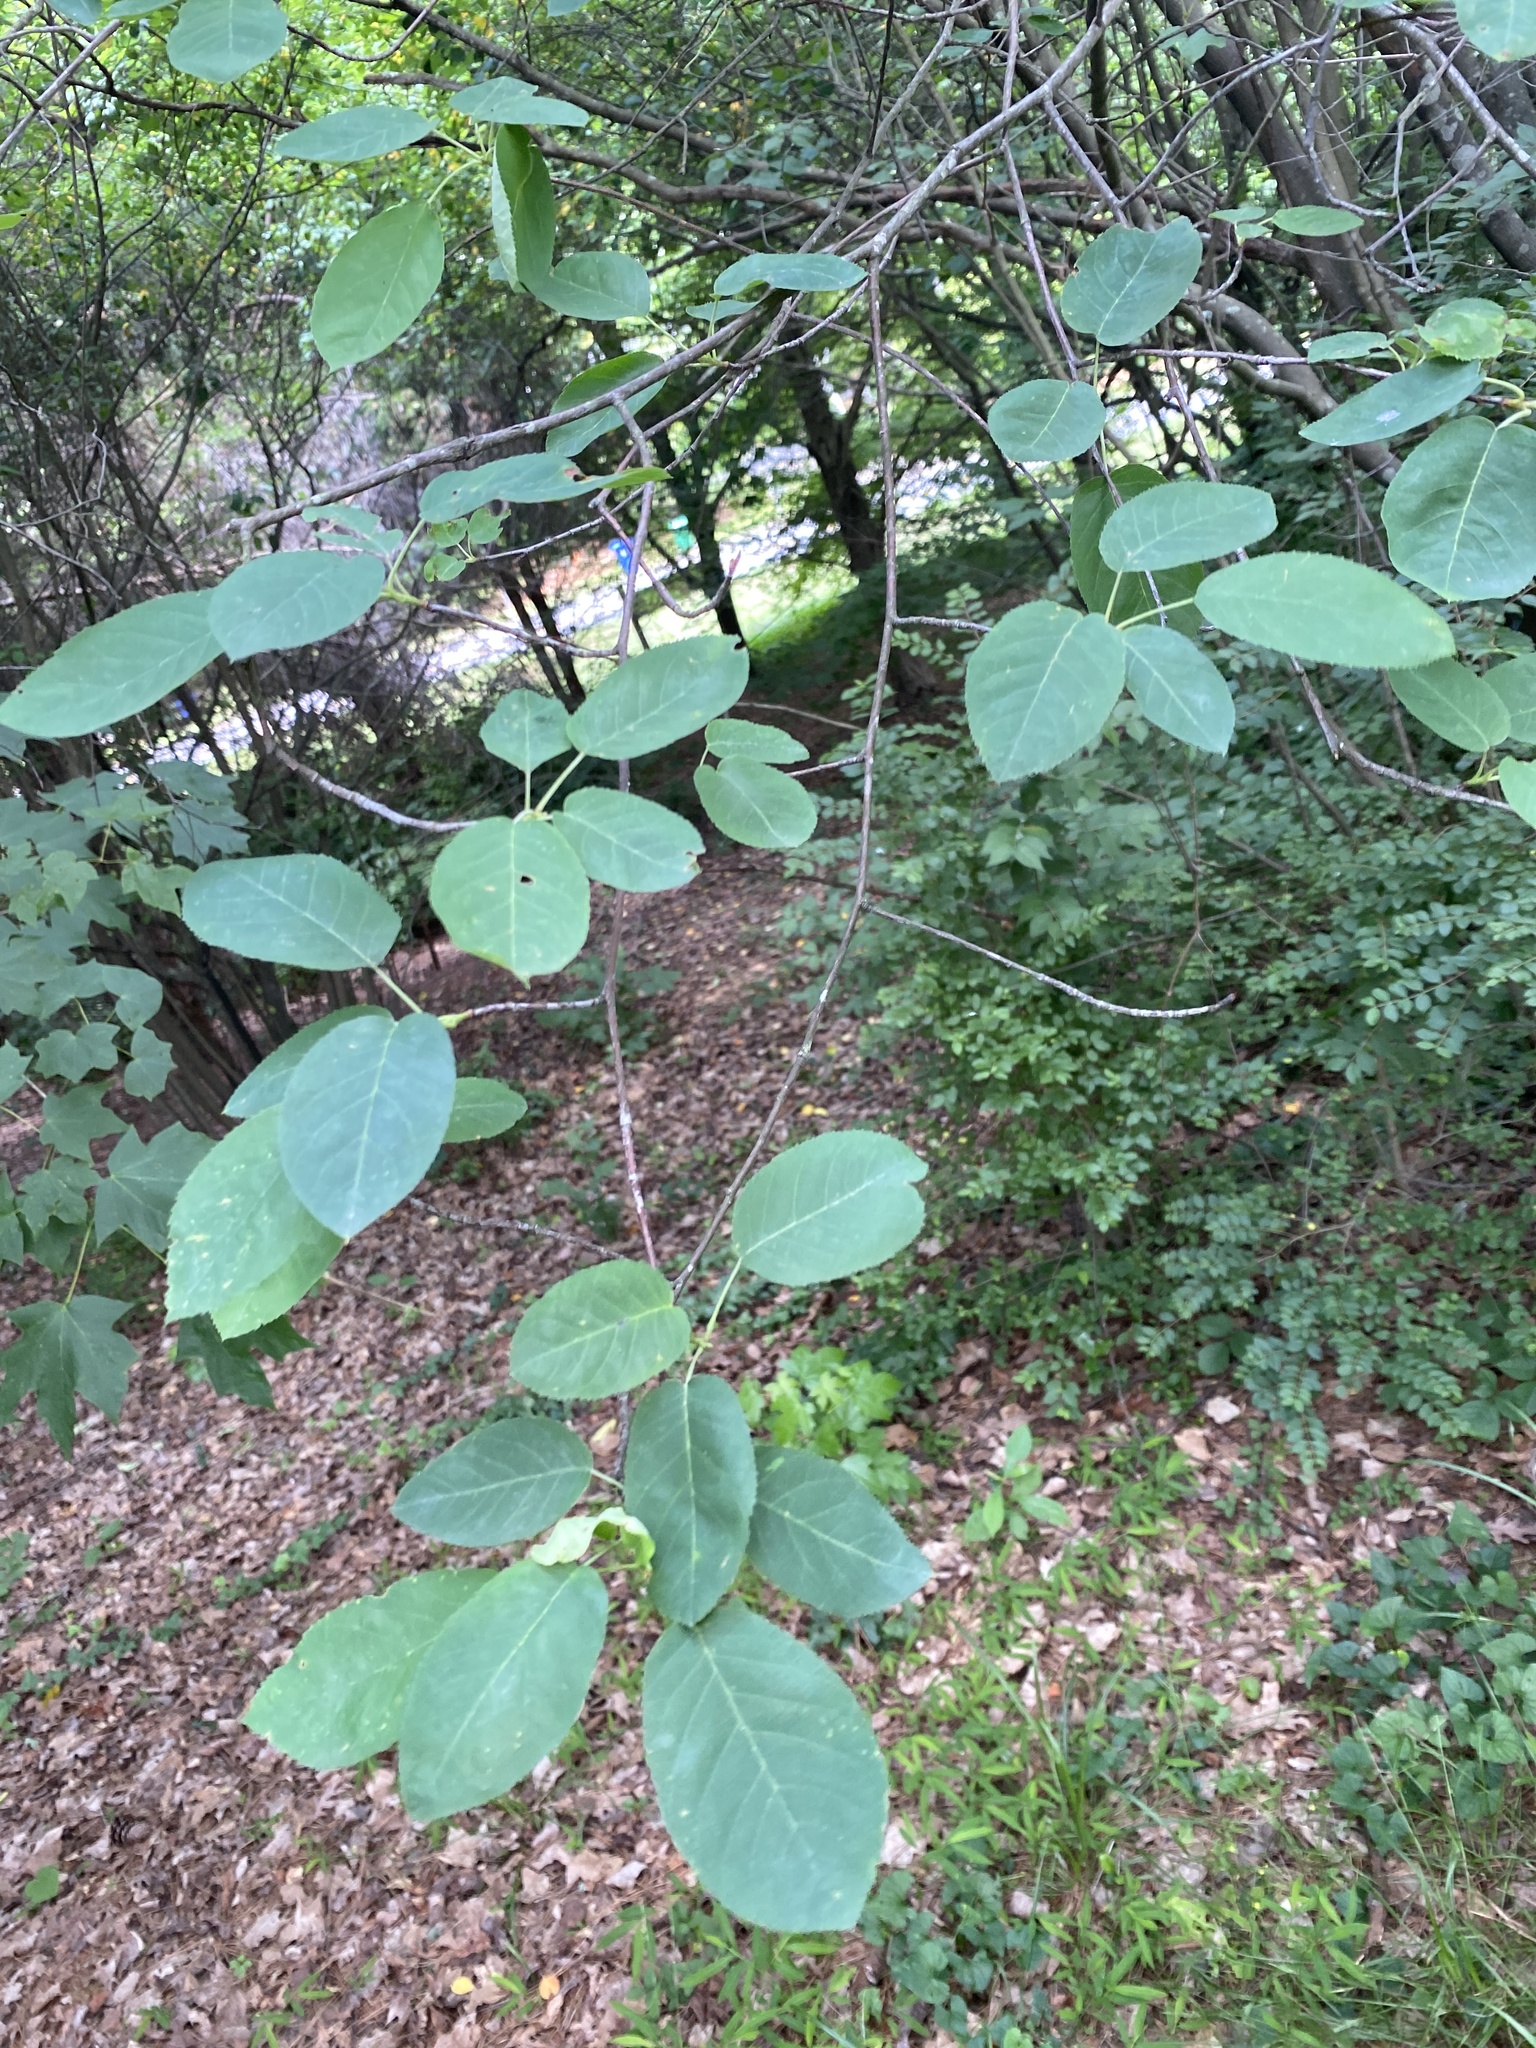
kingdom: Plantae
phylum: Tracheophyta
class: Magnoliopsida
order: Rosales
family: Rosaceae
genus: Amelanchier
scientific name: Amelanchier arborea
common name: Downy serviceberry
